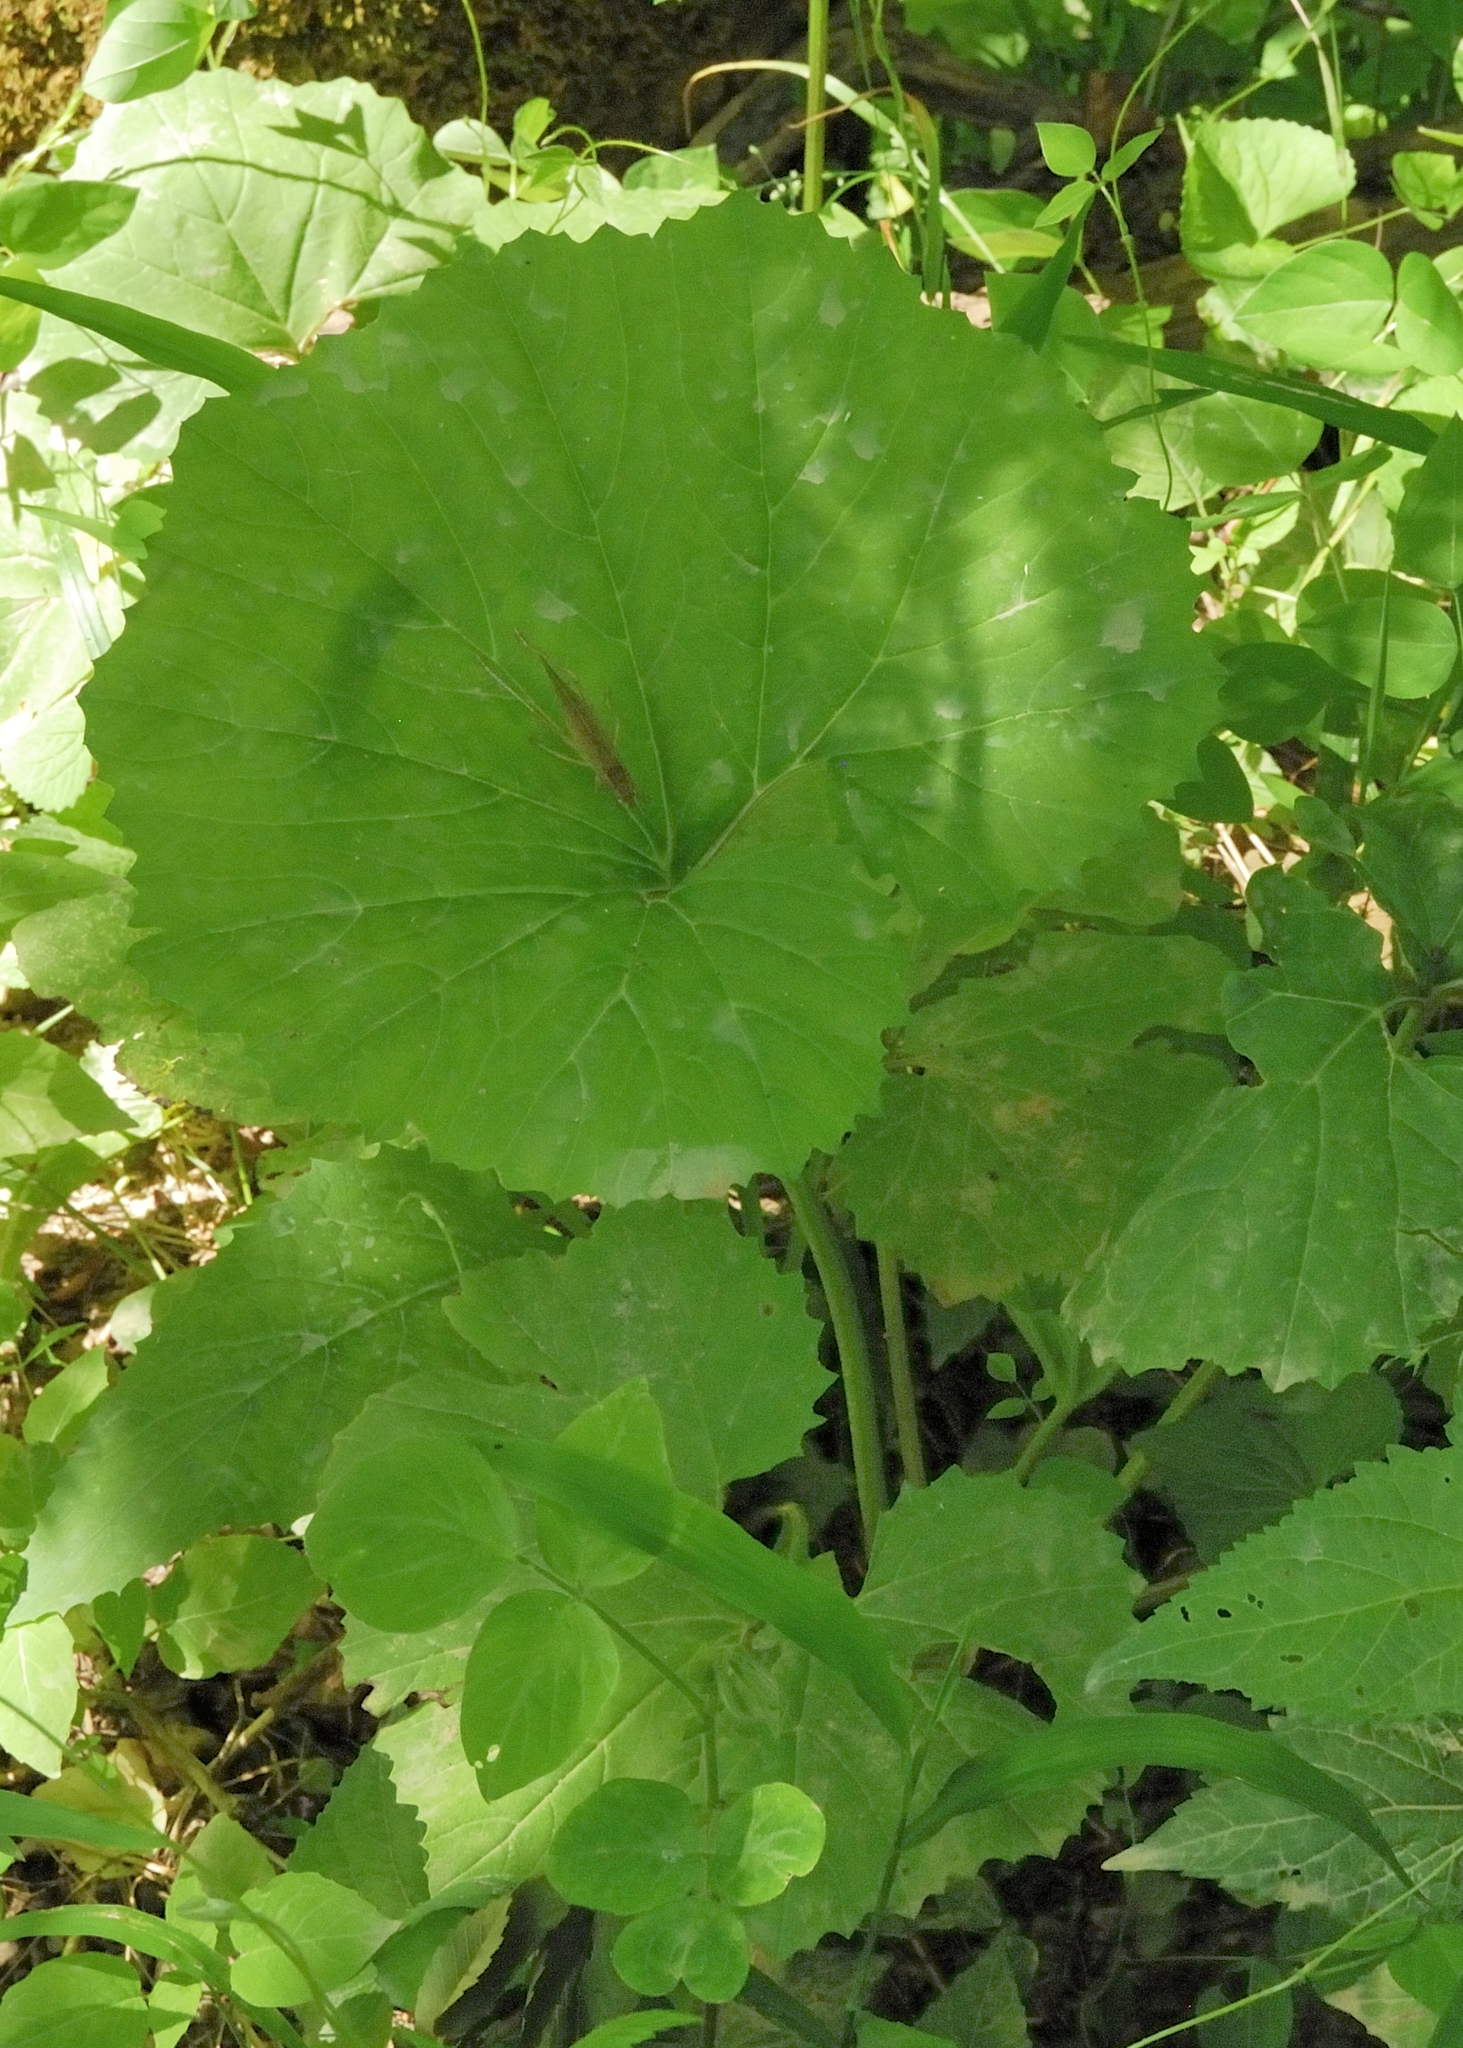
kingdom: Plantae
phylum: Tracheophyta
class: Magnoliopsida
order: Asterales
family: Asteraceae
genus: Arnoglossum
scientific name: Arnoglossum reniforme
